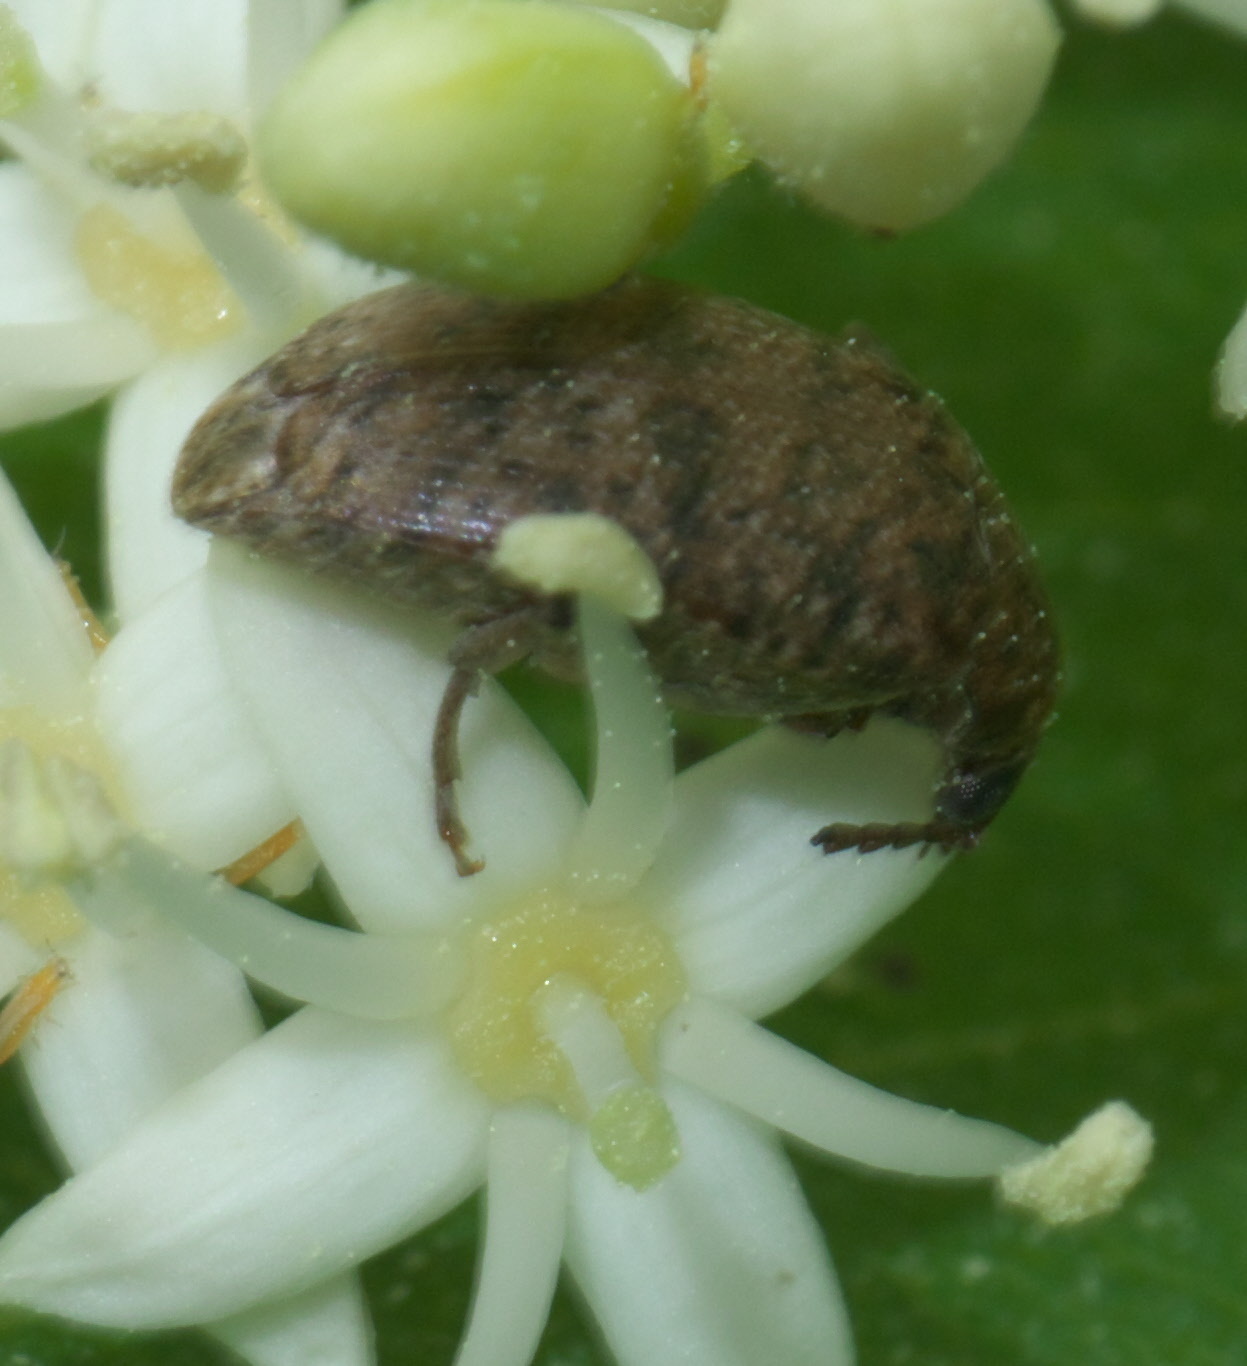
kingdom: Animalia
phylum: Arthropoda
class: Insecta
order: Coleoptera
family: Chrysomelidae
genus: Amblycerus
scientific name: Amblycerus robiniae
